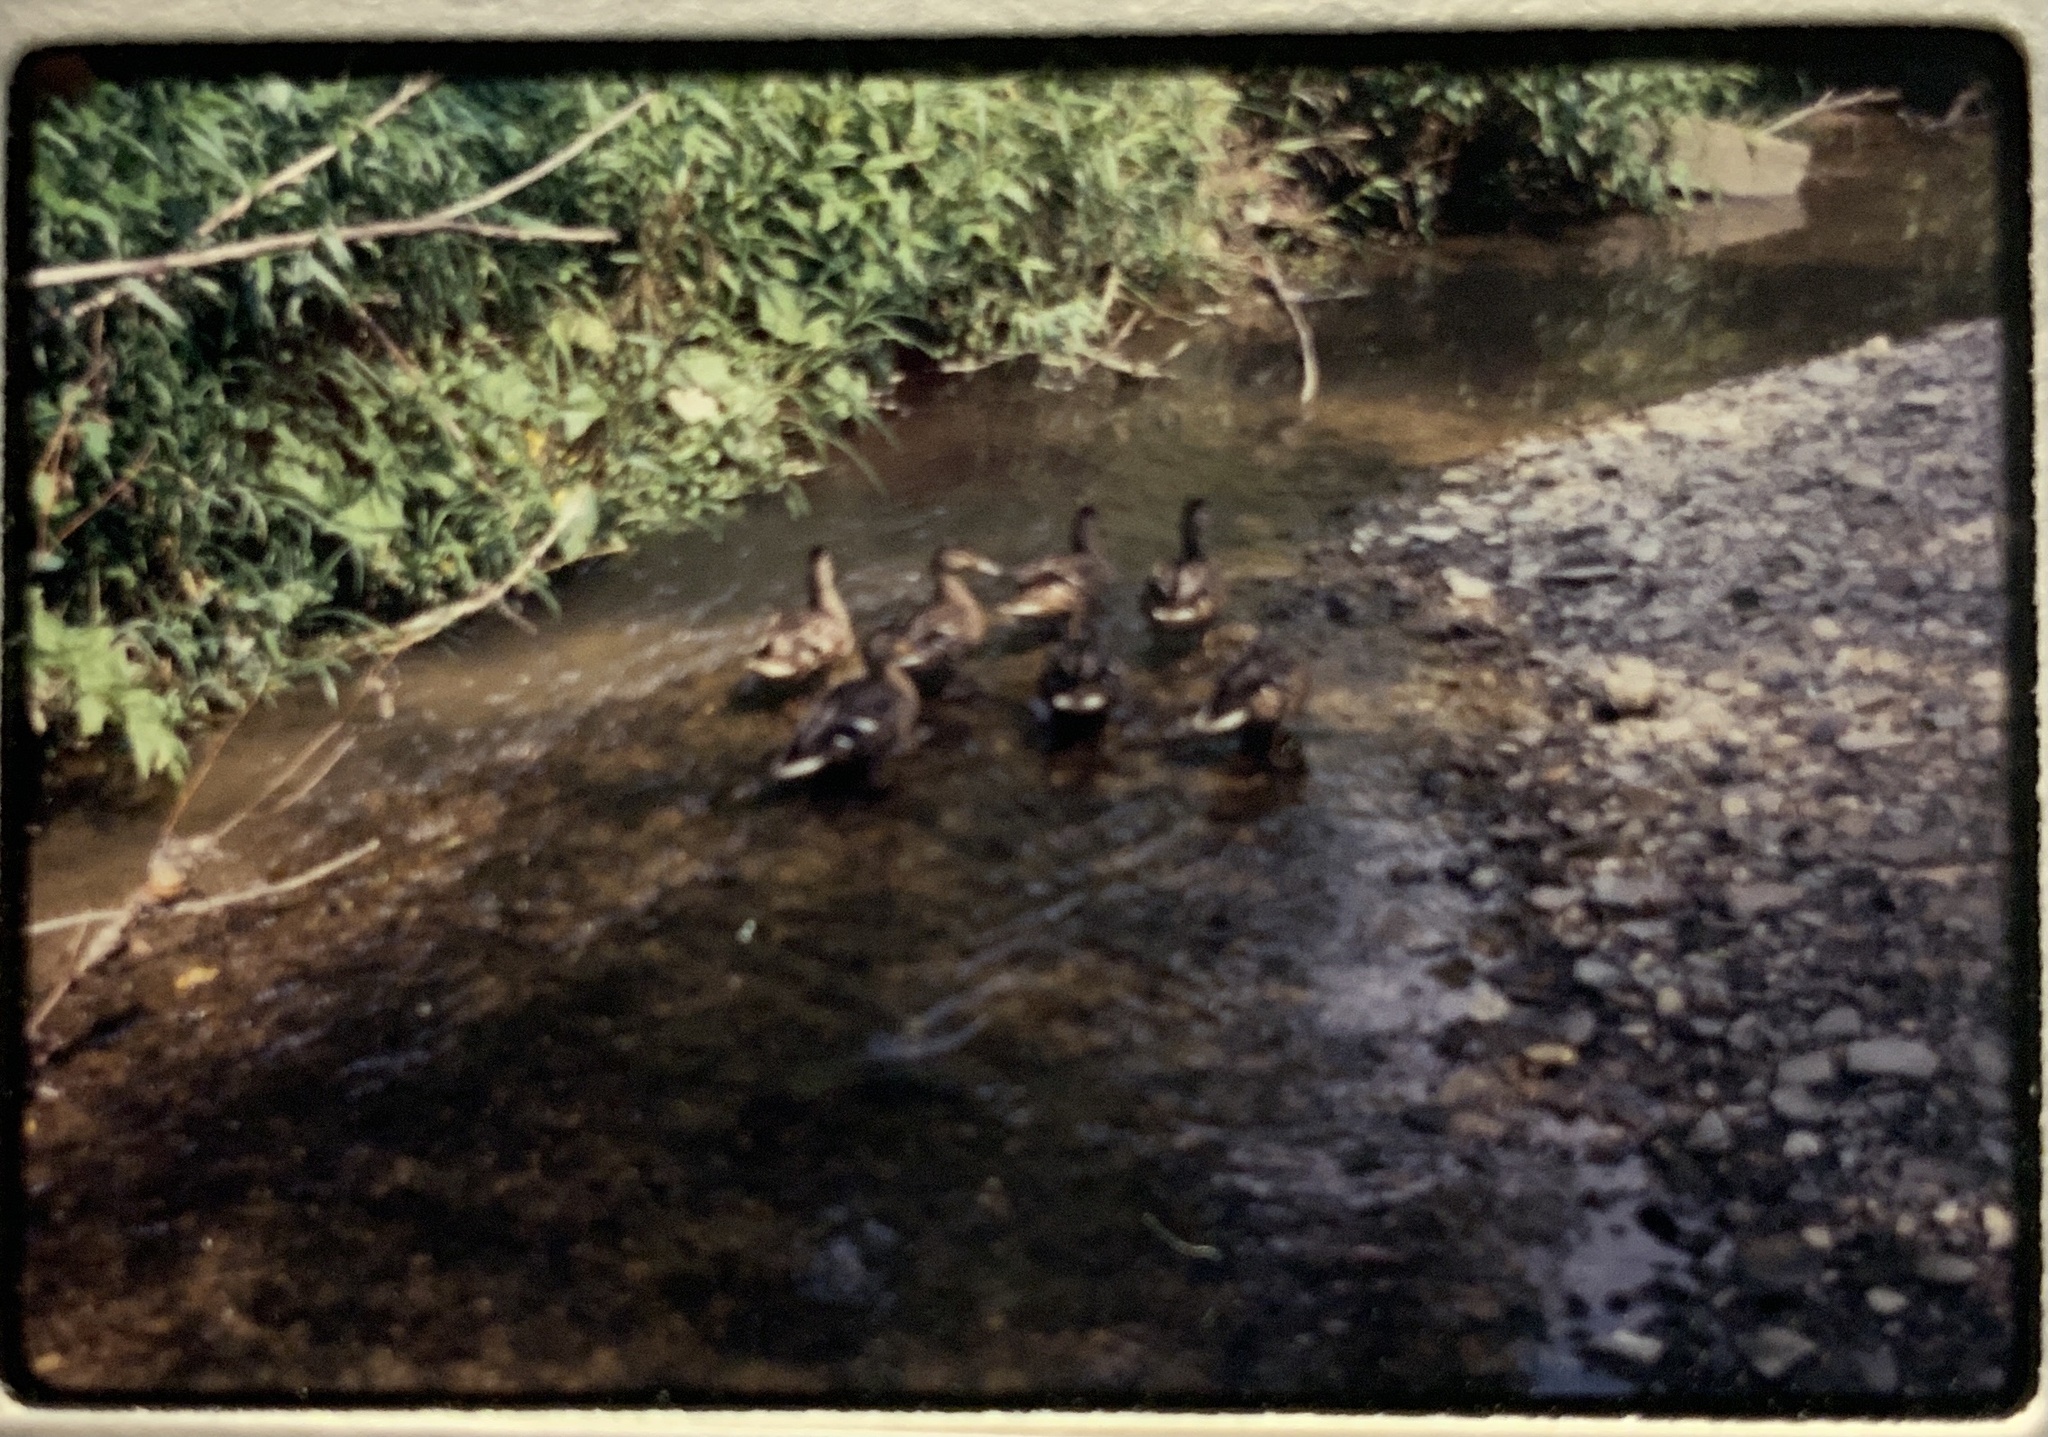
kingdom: Animalia
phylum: Chordata
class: Aves
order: Anseriformes
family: Anatidae
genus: Anas
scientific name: Anas platyrhynchos
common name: Mallard
